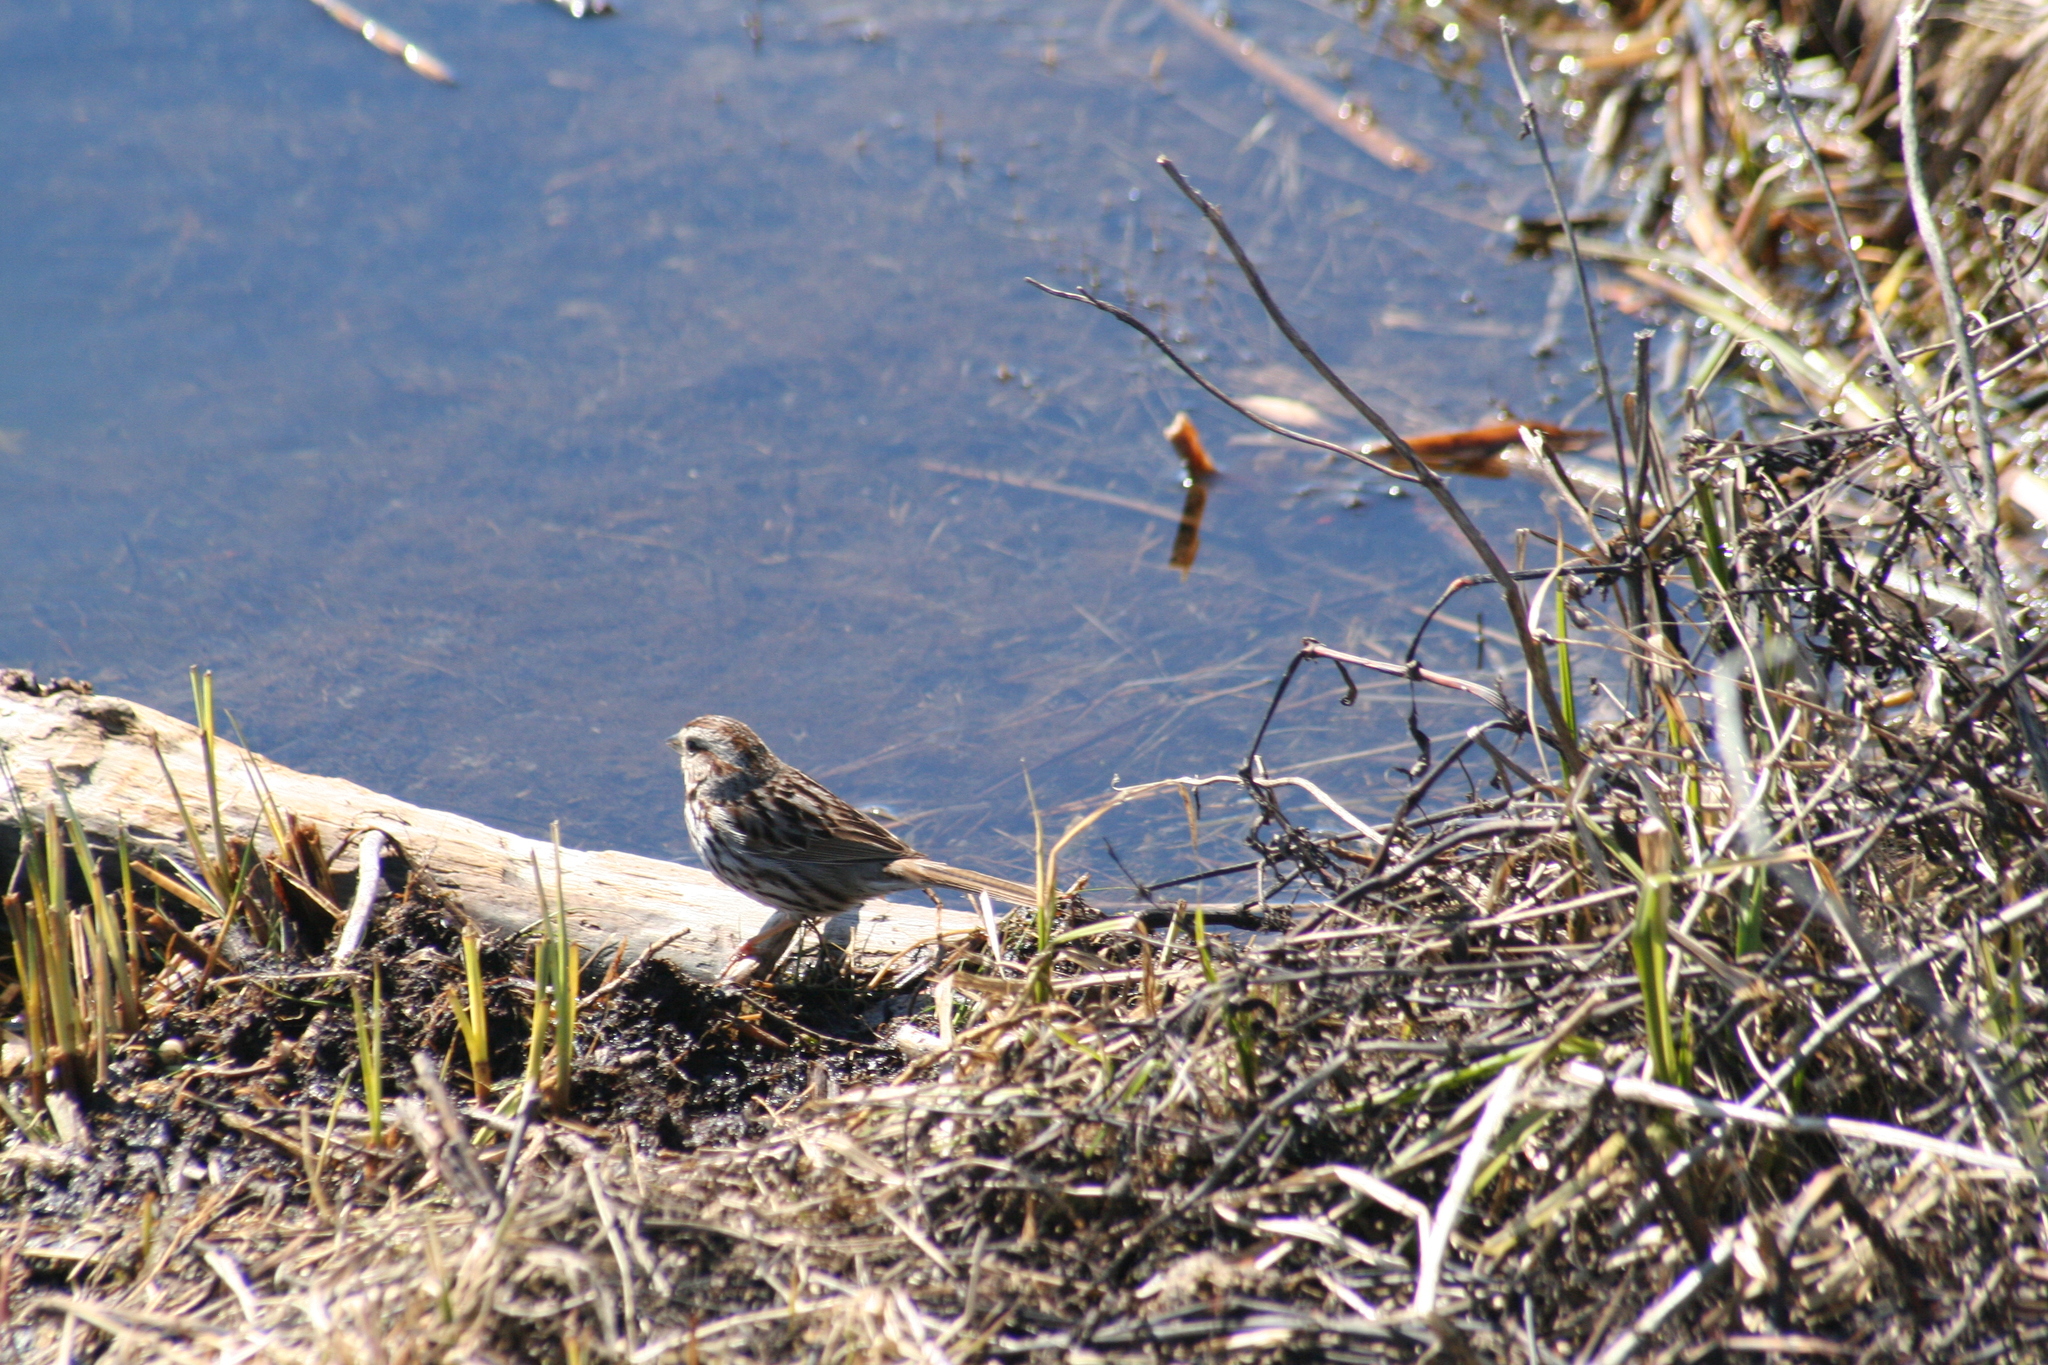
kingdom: Animalia
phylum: Chordata
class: Aves
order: Passeriformes
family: Passerellidae
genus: Melospiza
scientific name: Melospiza melodia
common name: Song sparrow
